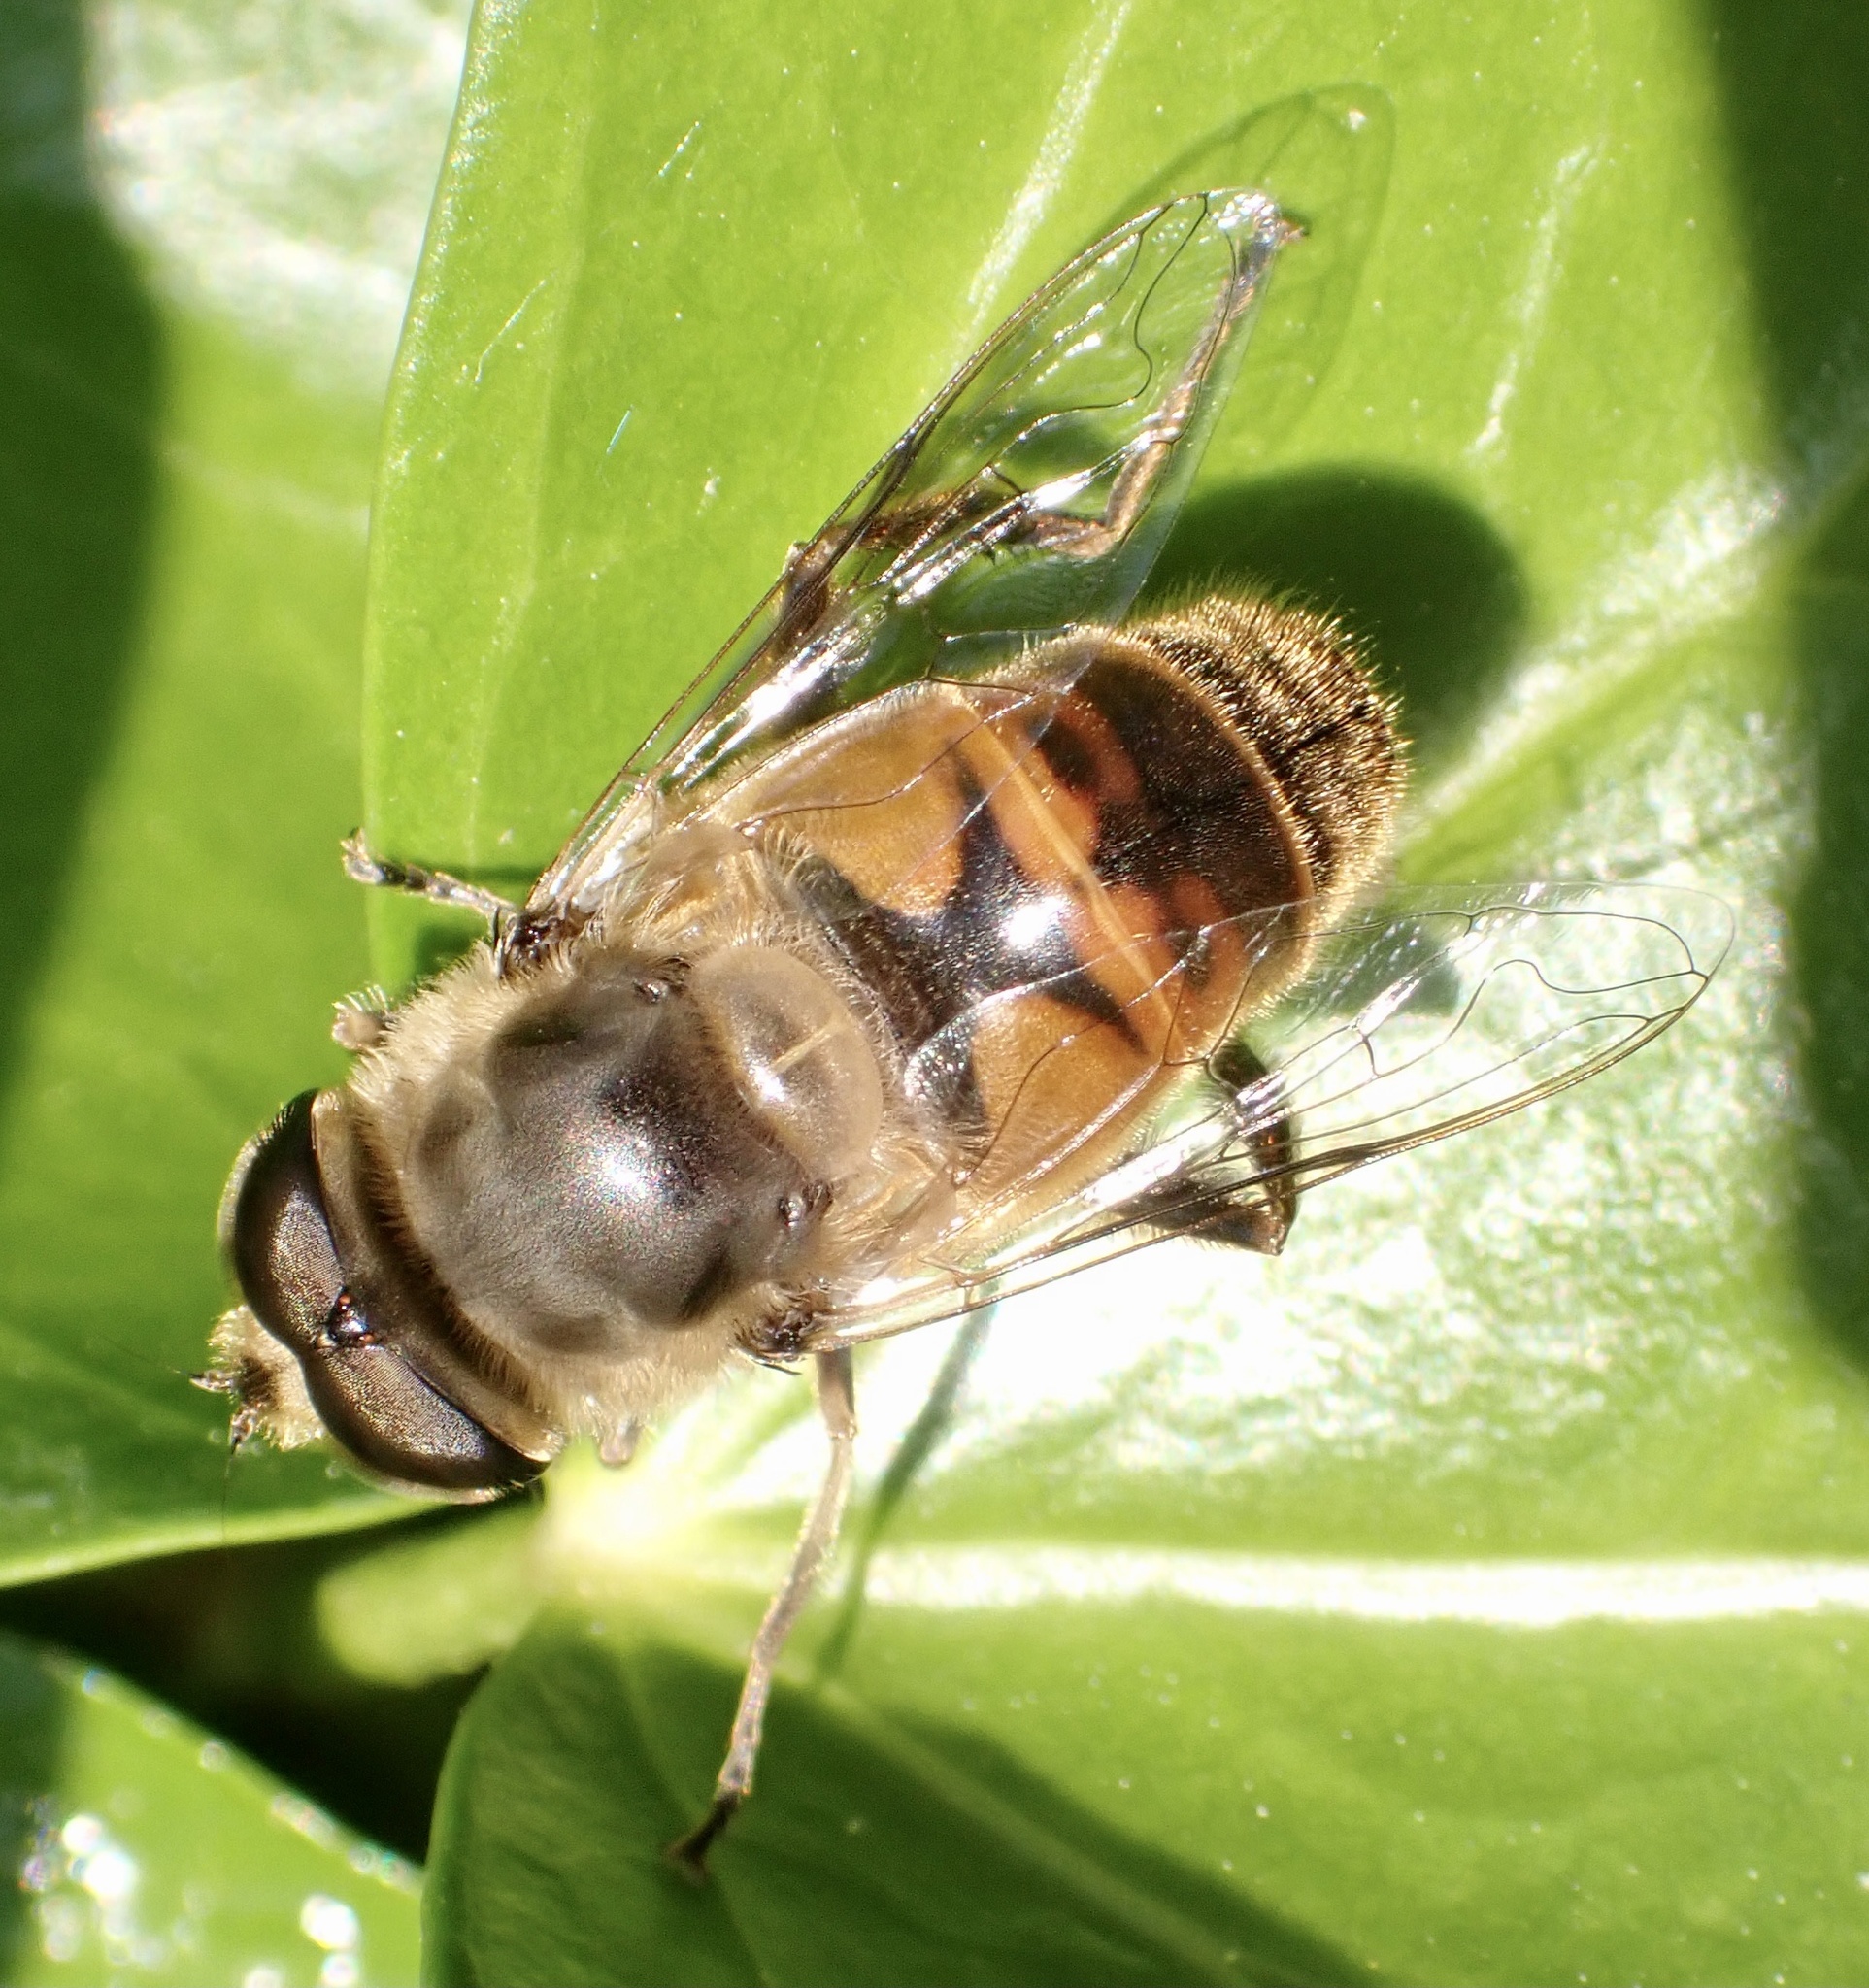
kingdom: Animalia
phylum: Arthropoda
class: Insecta
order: Diptera
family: Syrphidae
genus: Eristalis
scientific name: Eristalis tenax
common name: Drone fly
